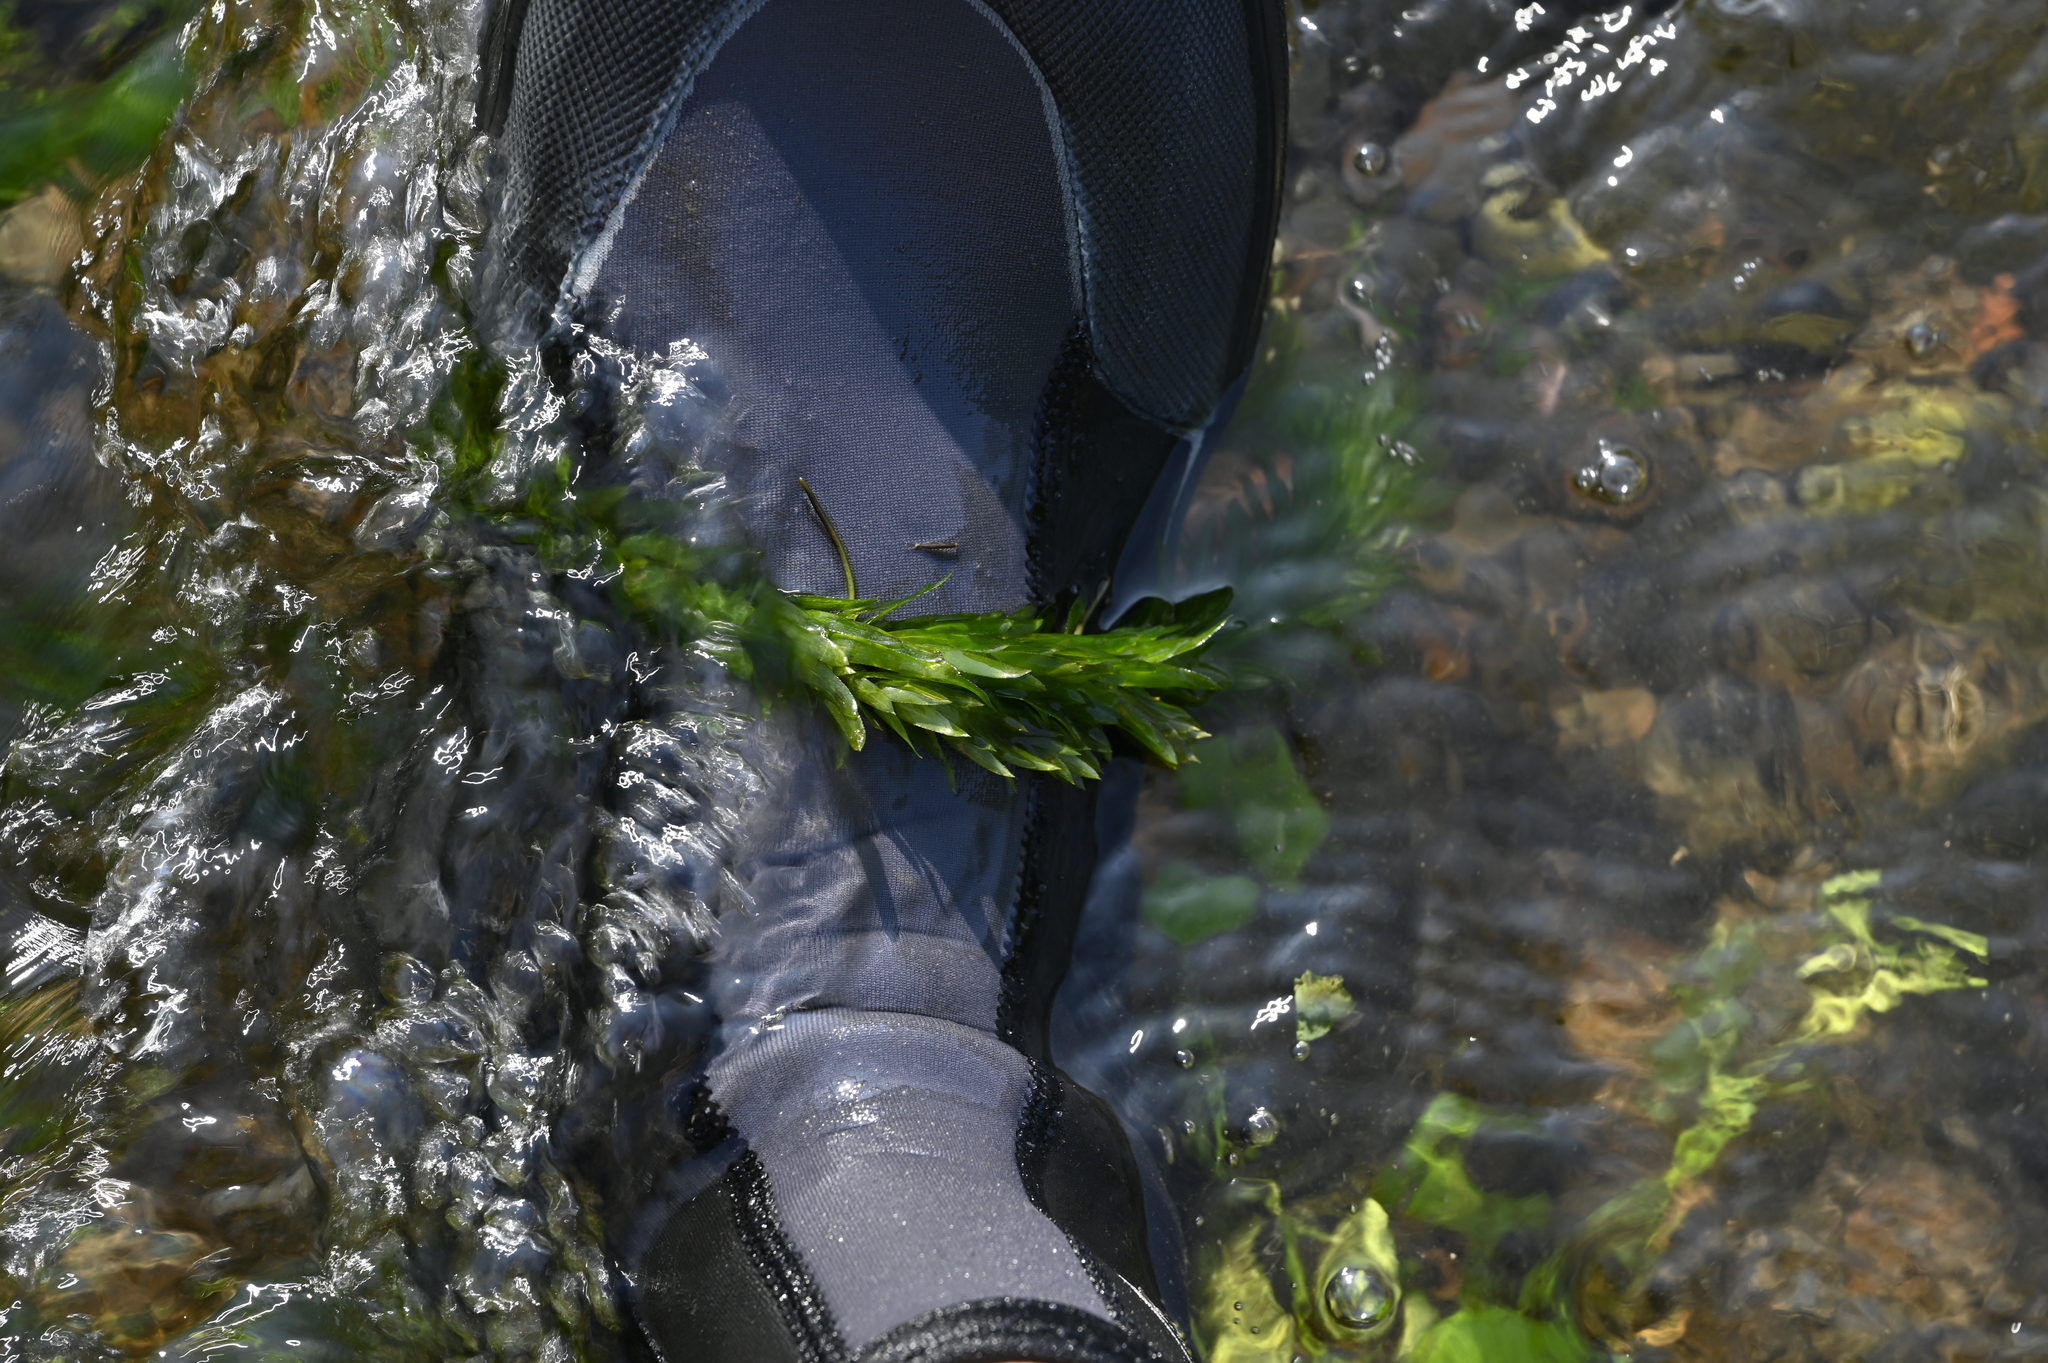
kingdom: Plantae
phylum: Tracheophyta
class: Liliopsida
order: Alismatales
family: Hydrocharitaceae
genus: Elodea
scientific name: Elodea densa
